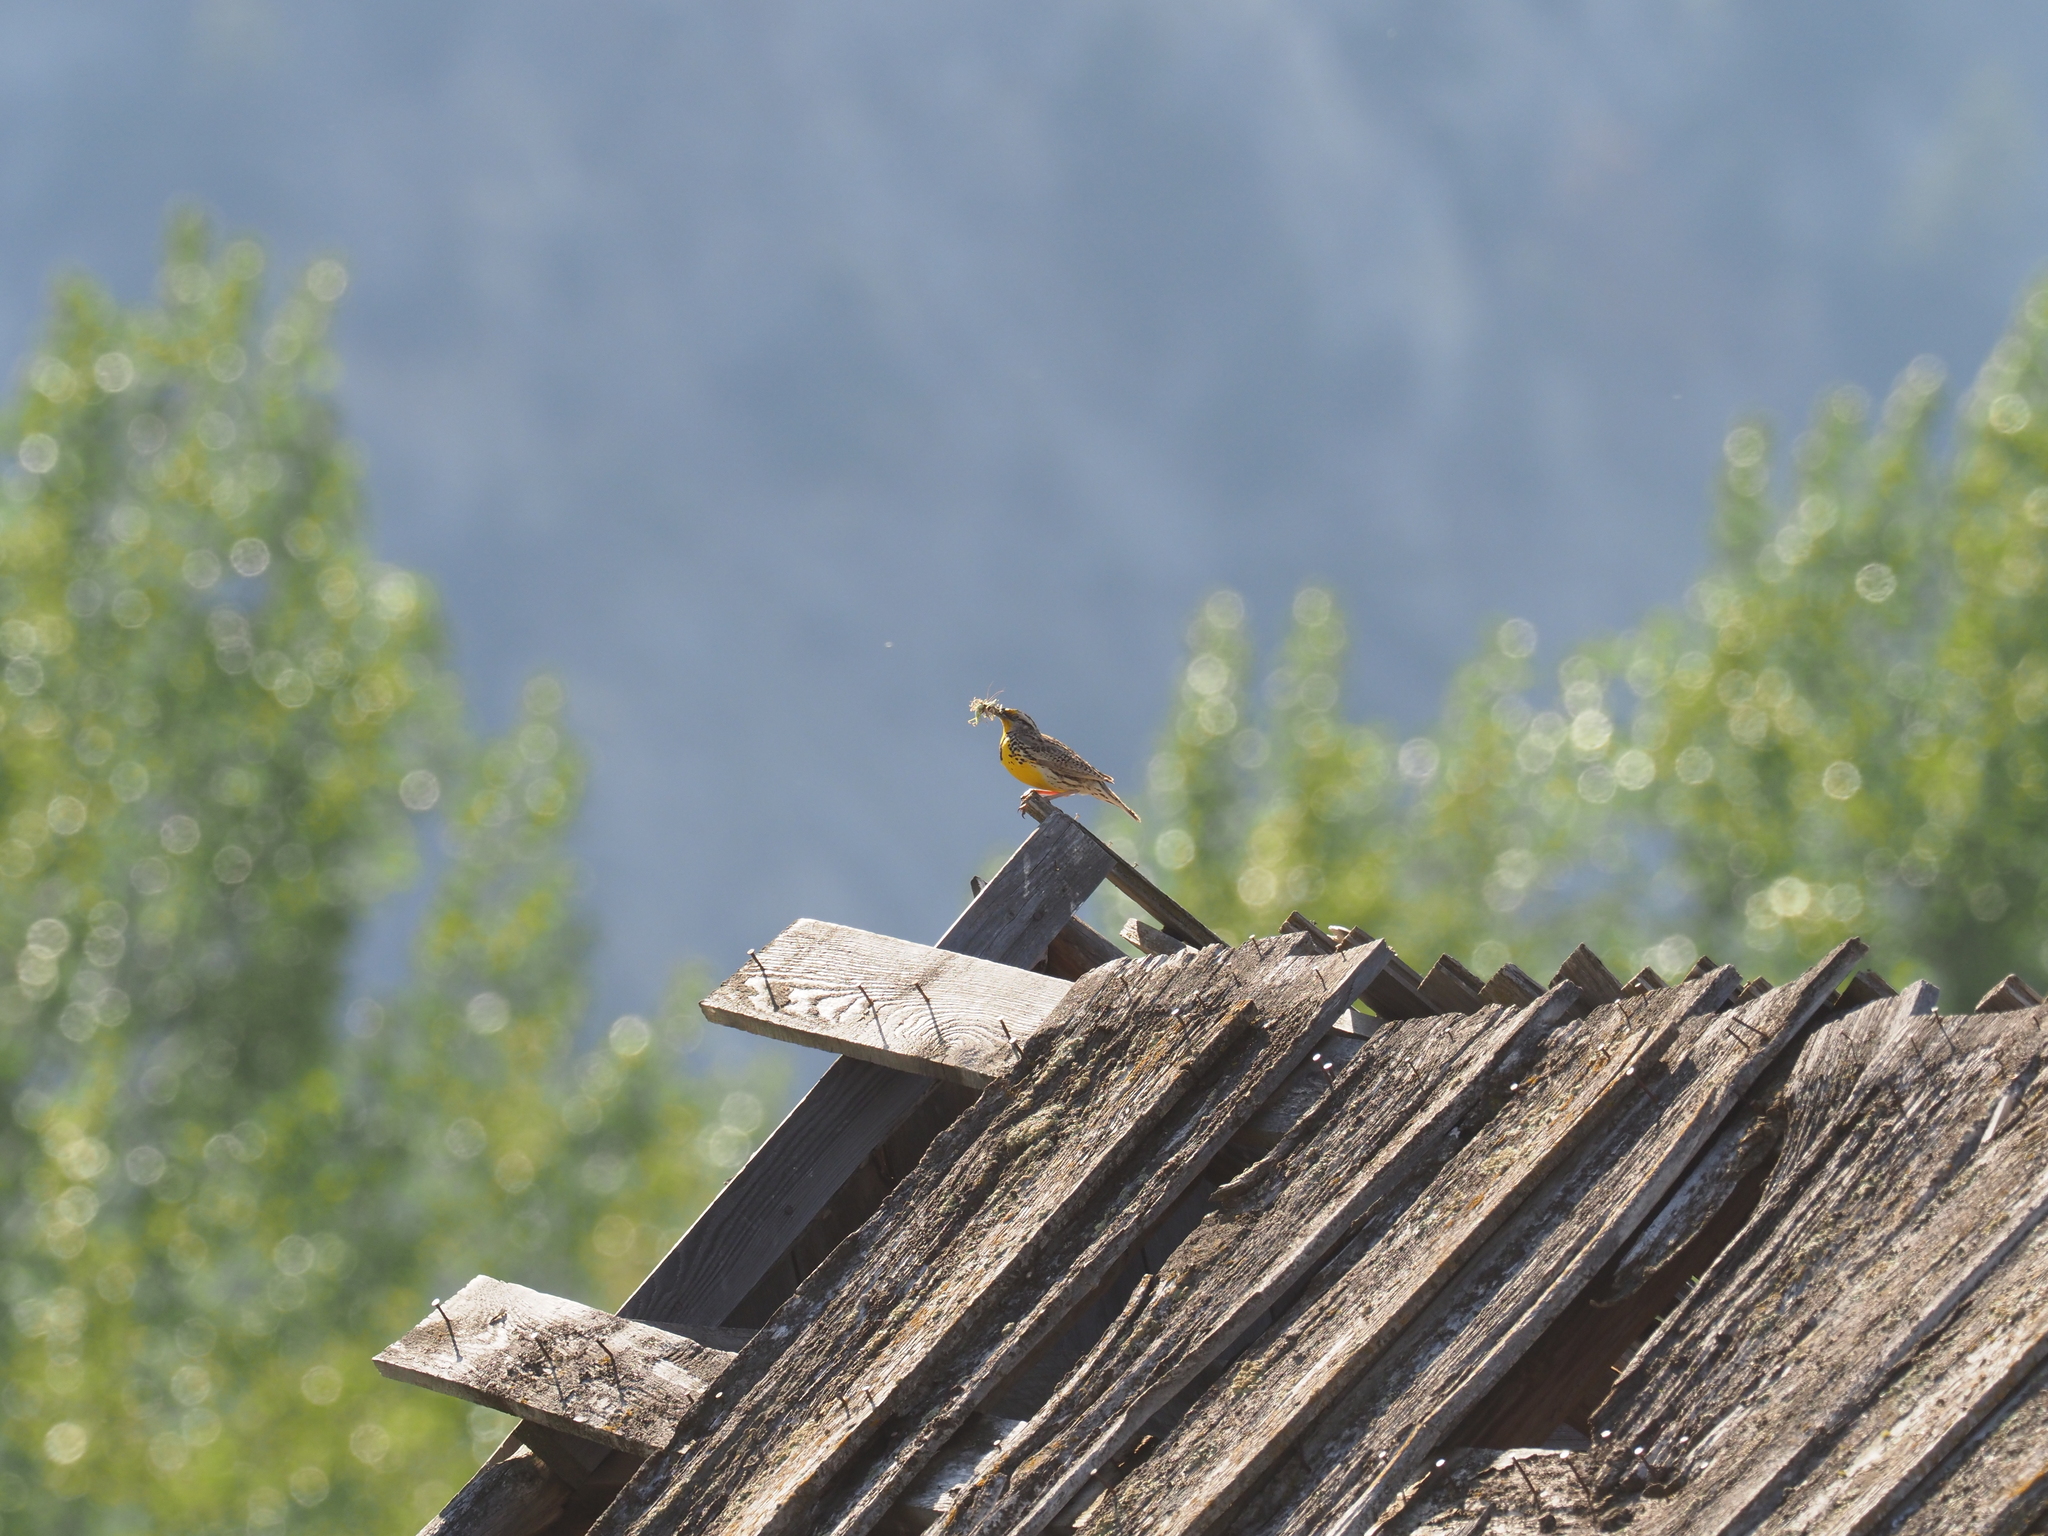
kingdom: Animalia
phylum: Chordata
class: Aves
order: Passeriformes
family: Icteridae
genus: Sturnella
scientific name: Sturnella neglecta
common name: Western meadowlark
